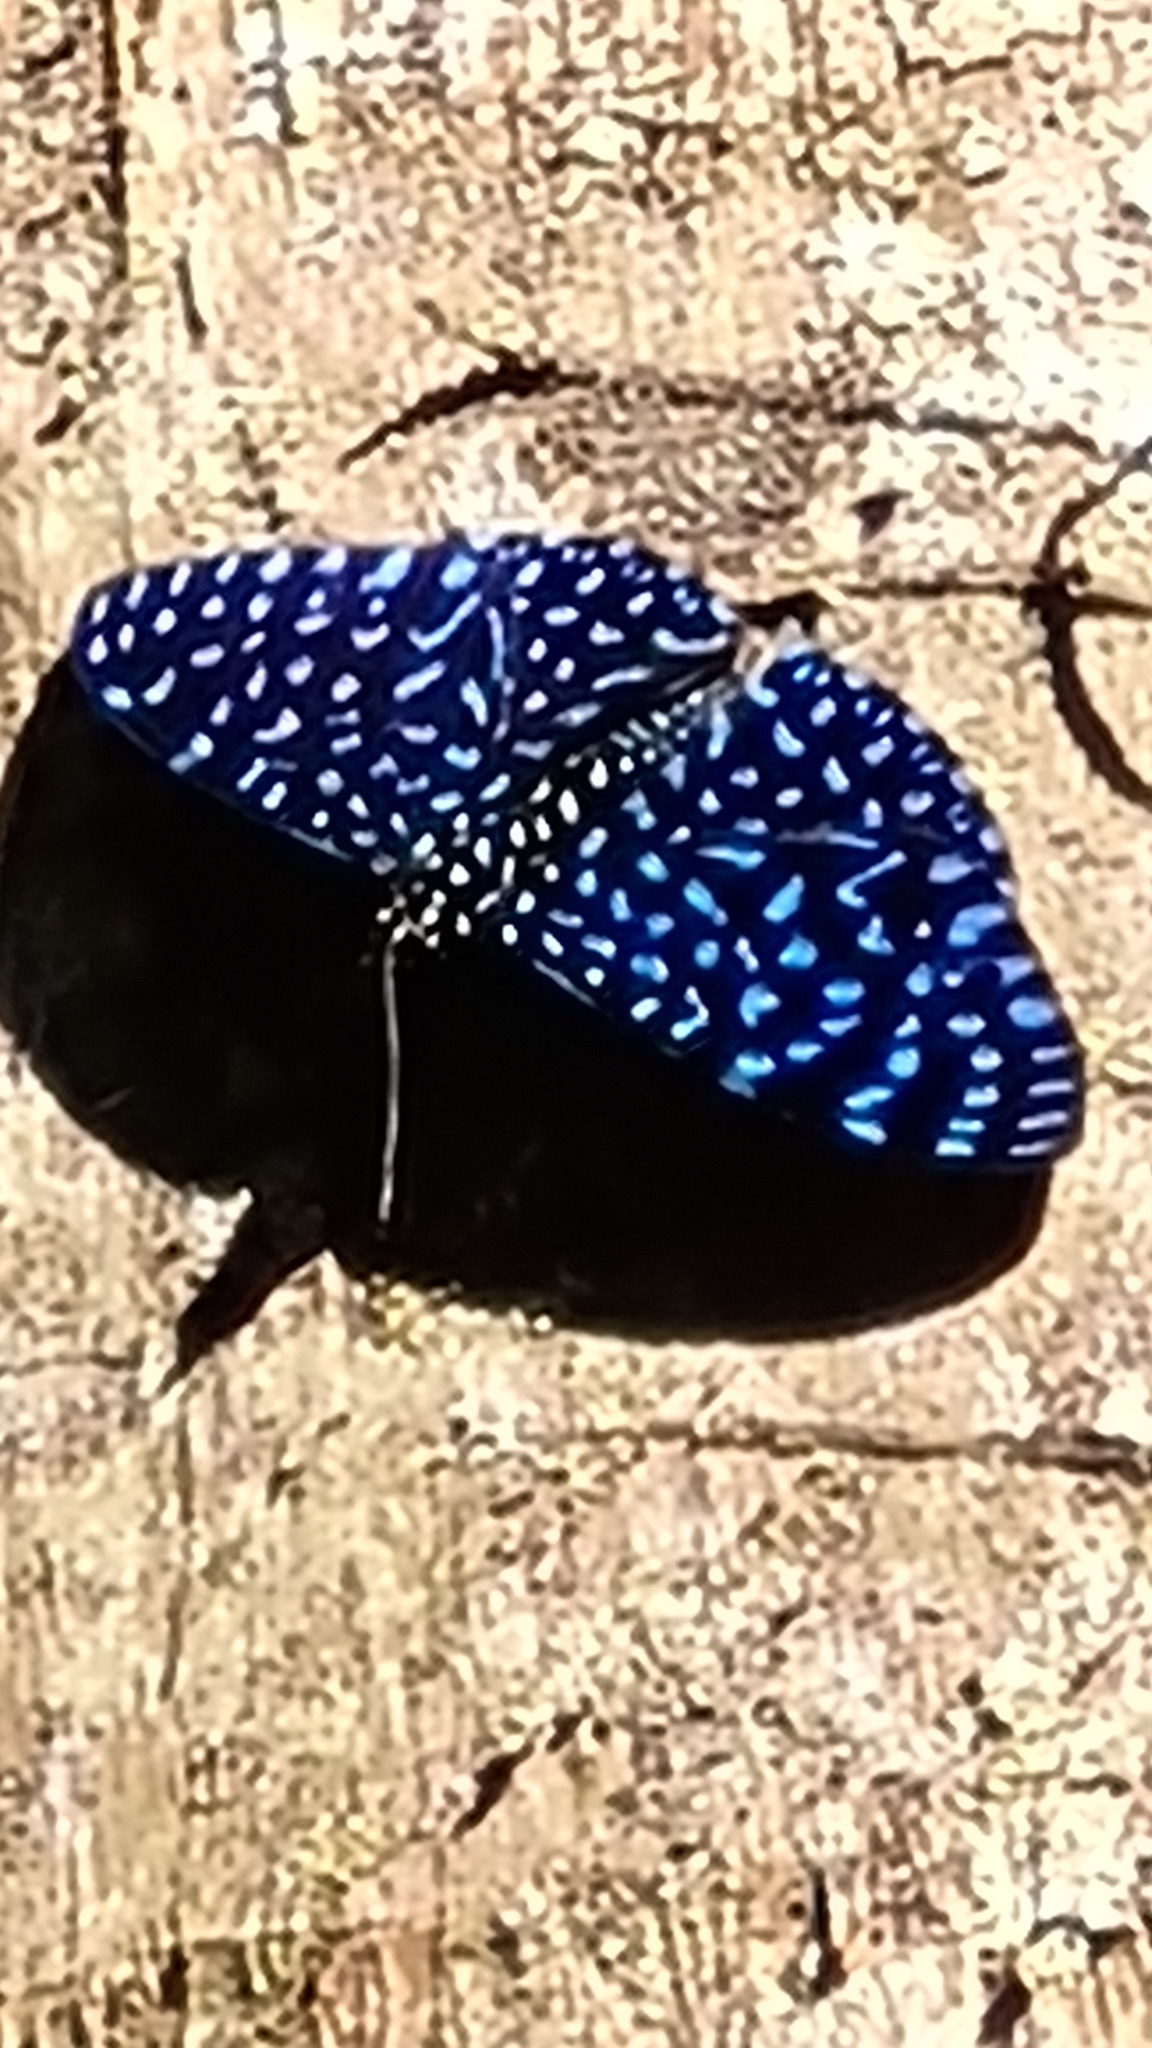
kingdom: Animalia
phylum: Arthropoda
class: Insecta
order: Lepidoptera
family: Nymphalidae
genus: Hamadryas
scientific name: Hamadryas arete
